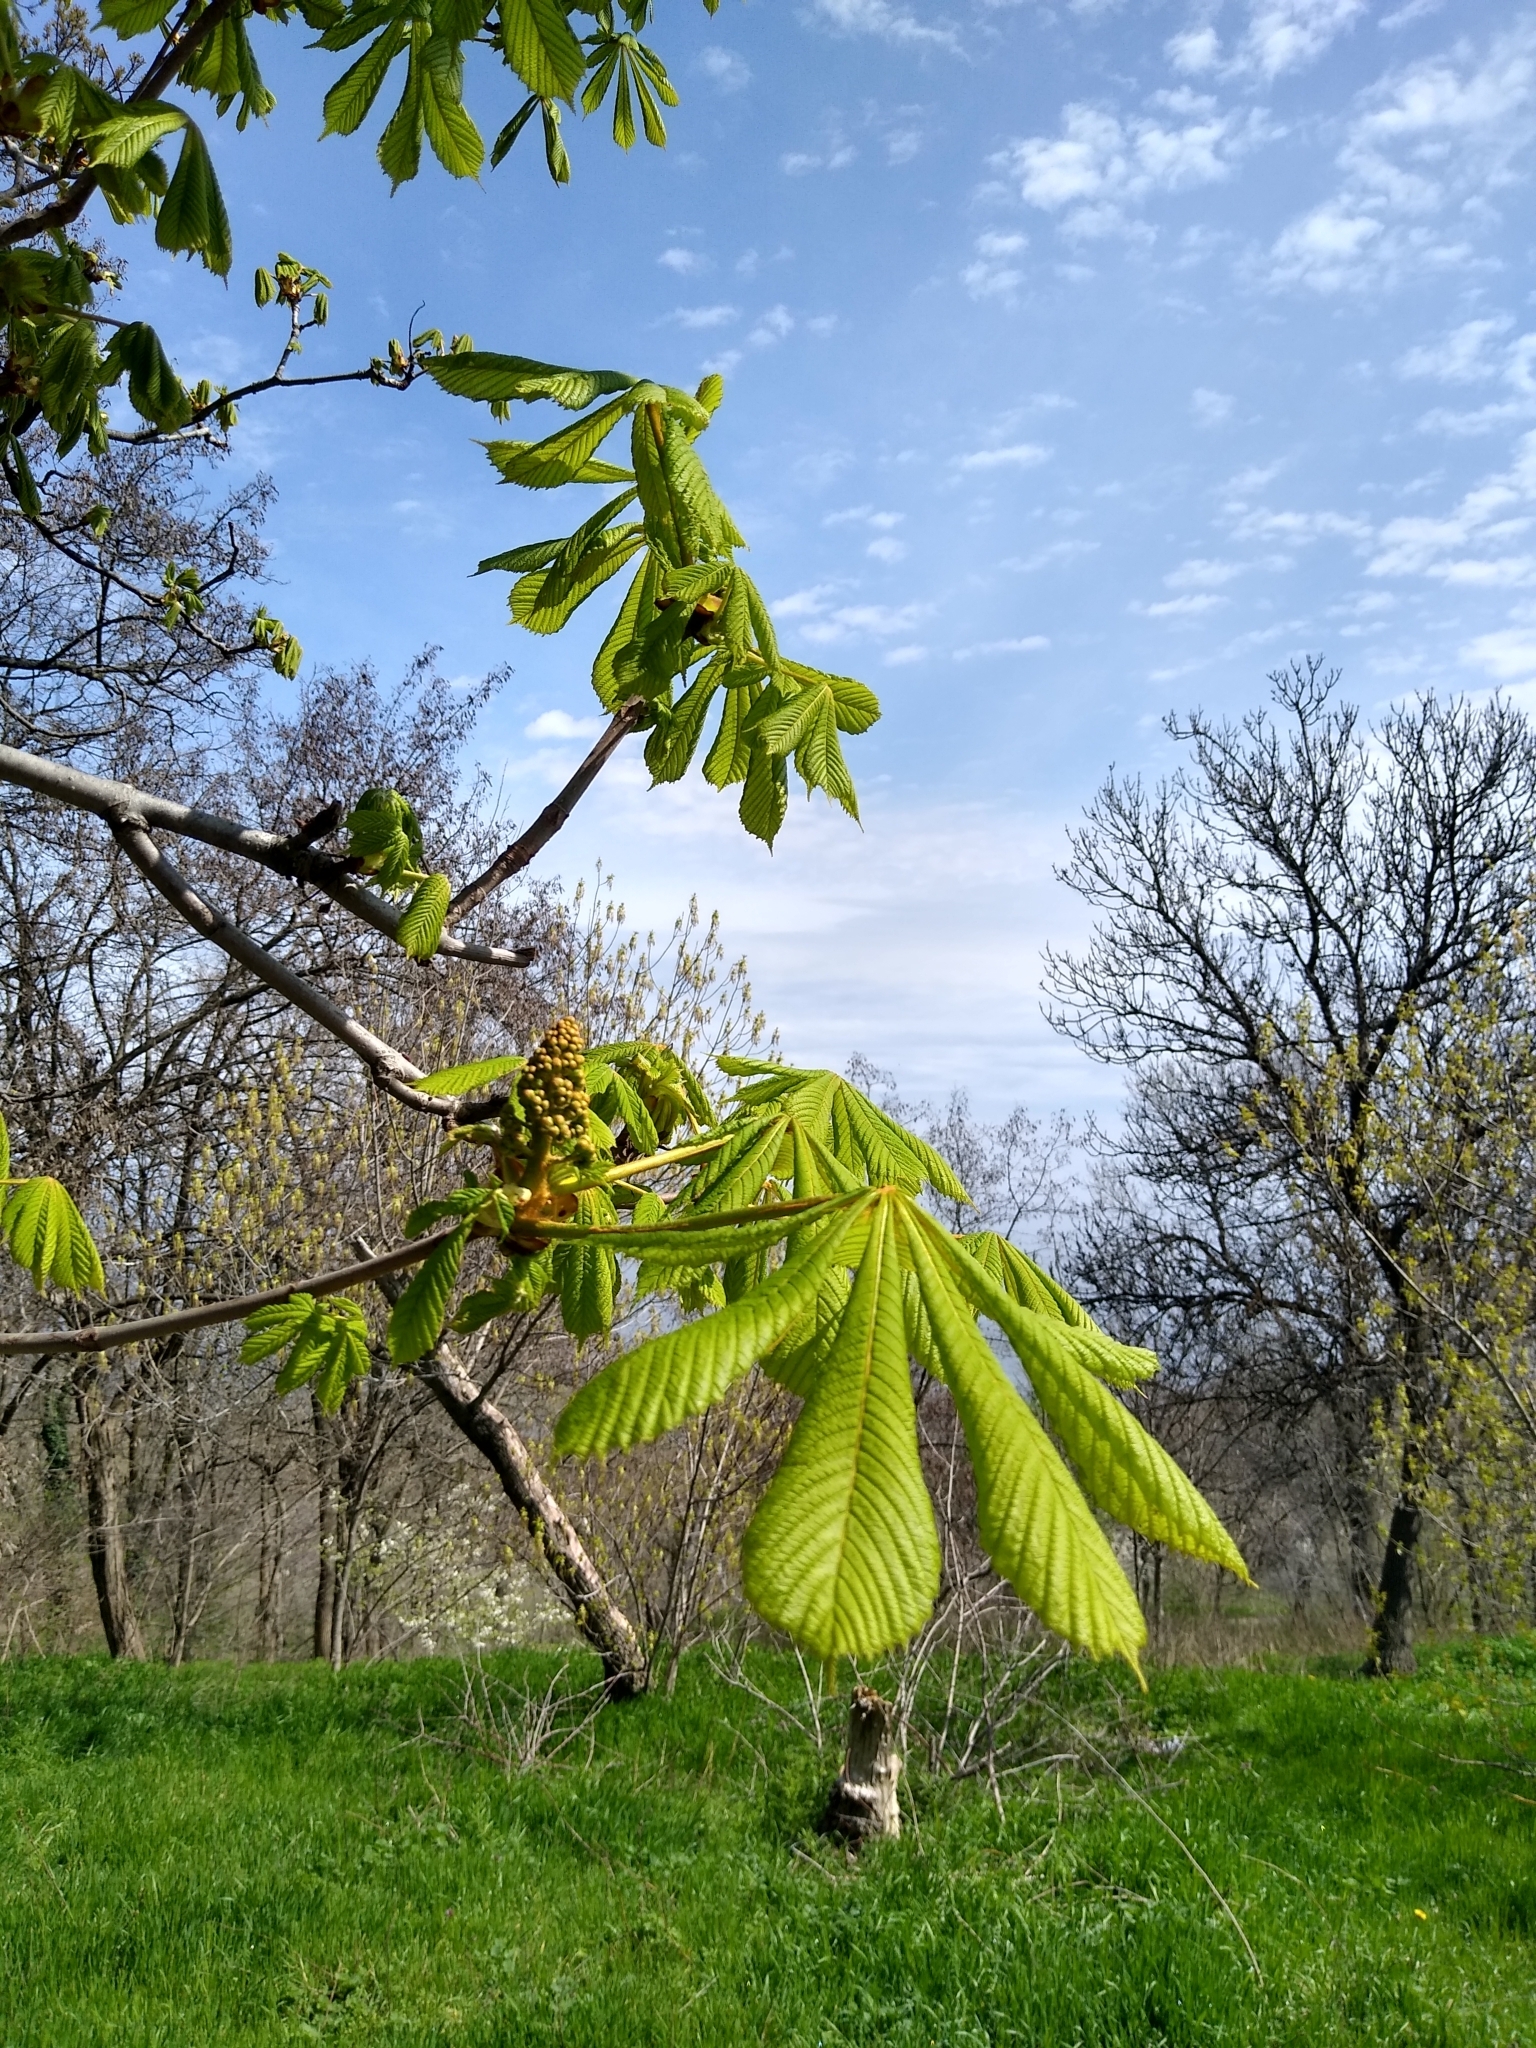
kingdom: Plantae
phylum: Tracheophyta
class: Magnoliopsida
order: Sapindales
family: Sapindaceae
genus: Aesculus
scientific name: Aesculus hippocastanum
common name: Horse-chestnut
